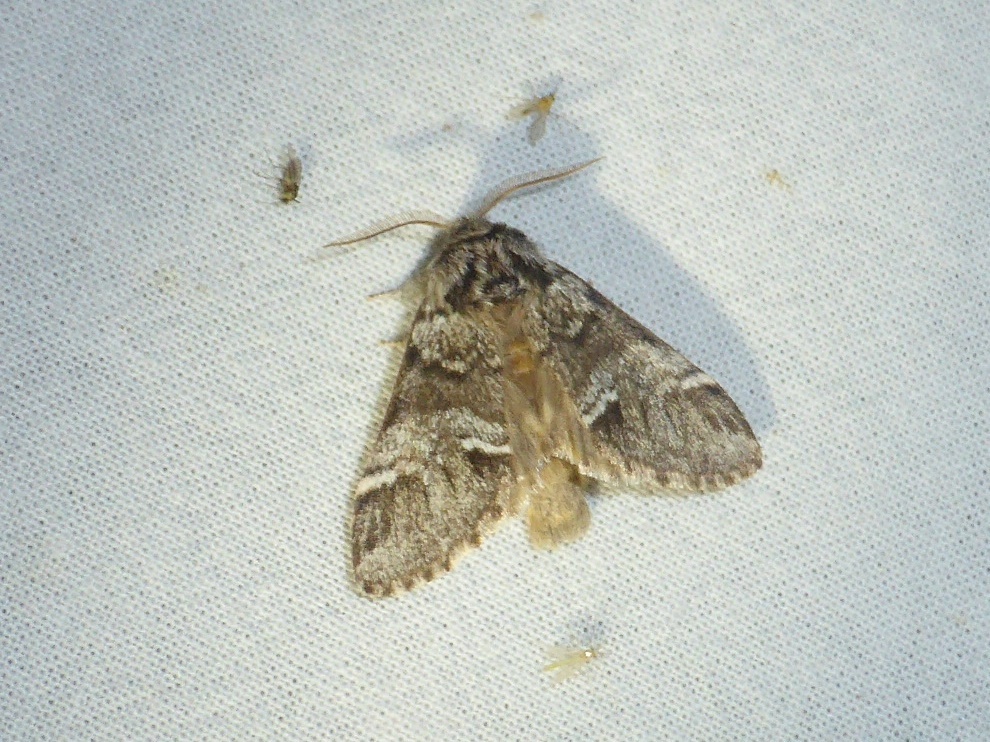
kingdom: Animalia
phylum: Arthropoda
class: Insecta
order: Lepidoptera
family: Notodontidae
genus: Drymonia
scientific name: Drymonia dodonaea
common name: Marbled brown
